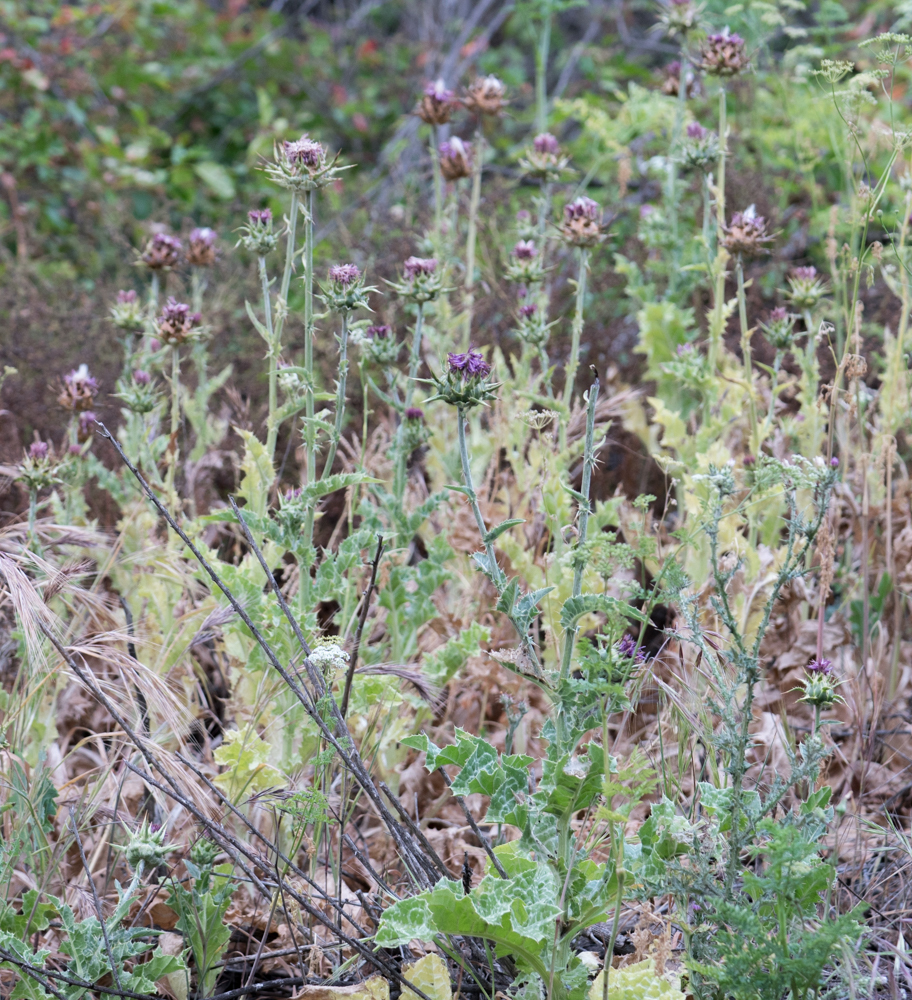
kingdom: Plantae
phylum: Tracheophyta
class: Magnoliopsida
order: Asterales
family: Asteraceae
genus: Silybum
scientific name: Silybum marianum
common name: Milk thistle
